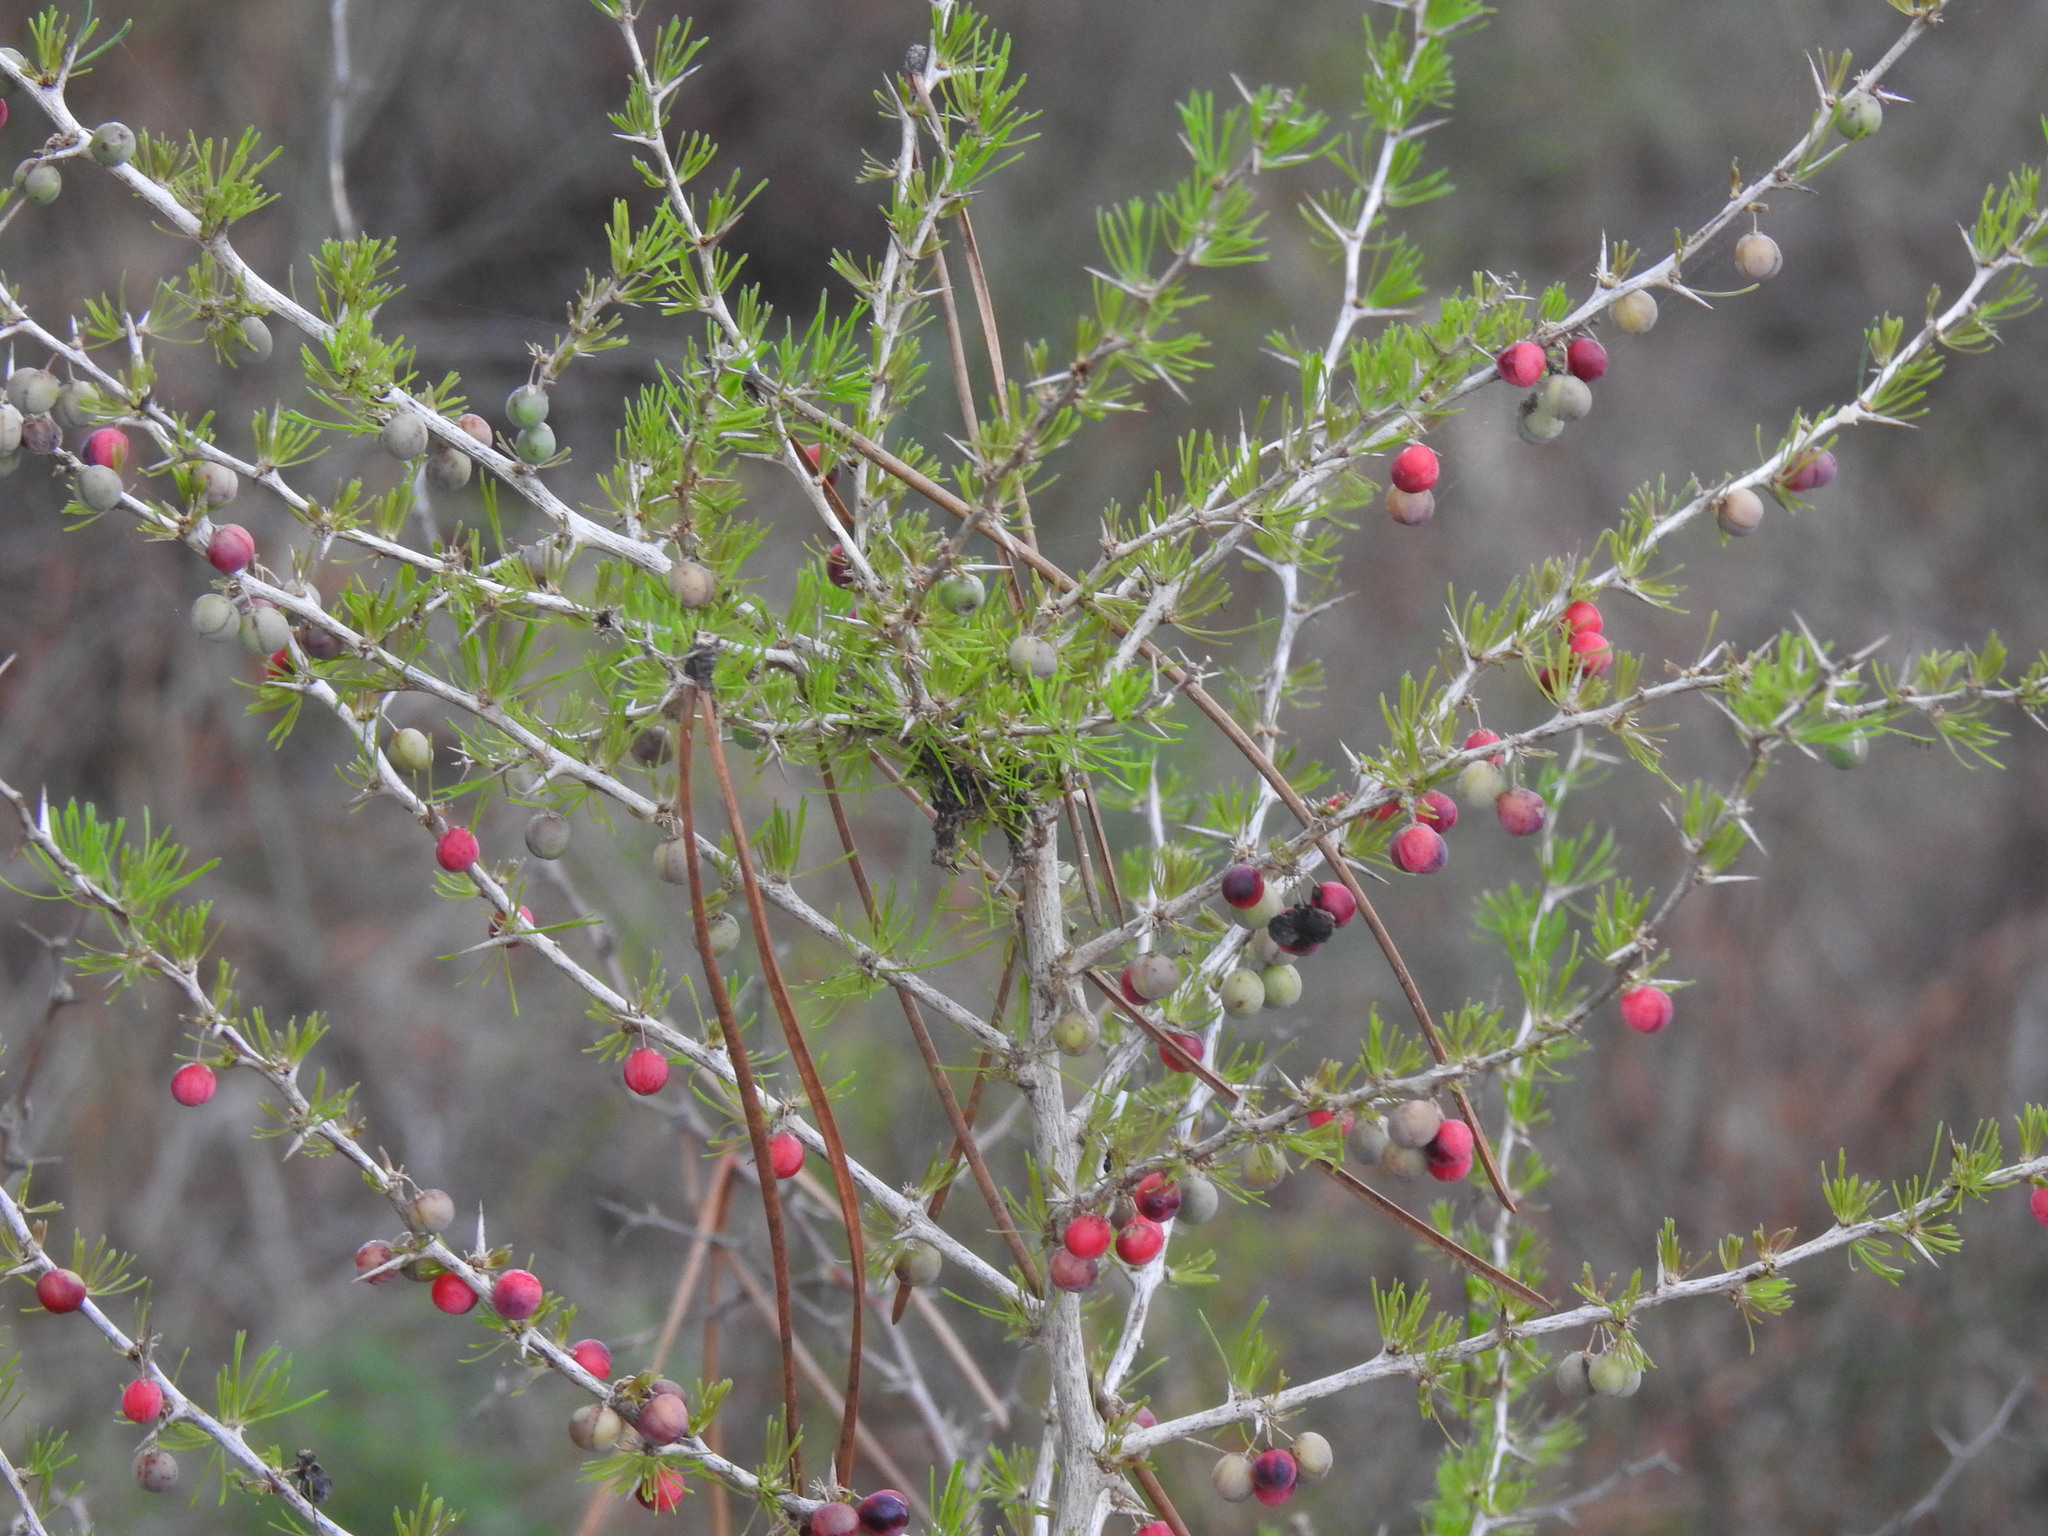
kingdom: Plantae
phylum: Tracheophyta
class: Liliopsida
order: Asparagales
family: Asparagaceae
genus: Asparagus
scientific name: Asparagus albus
